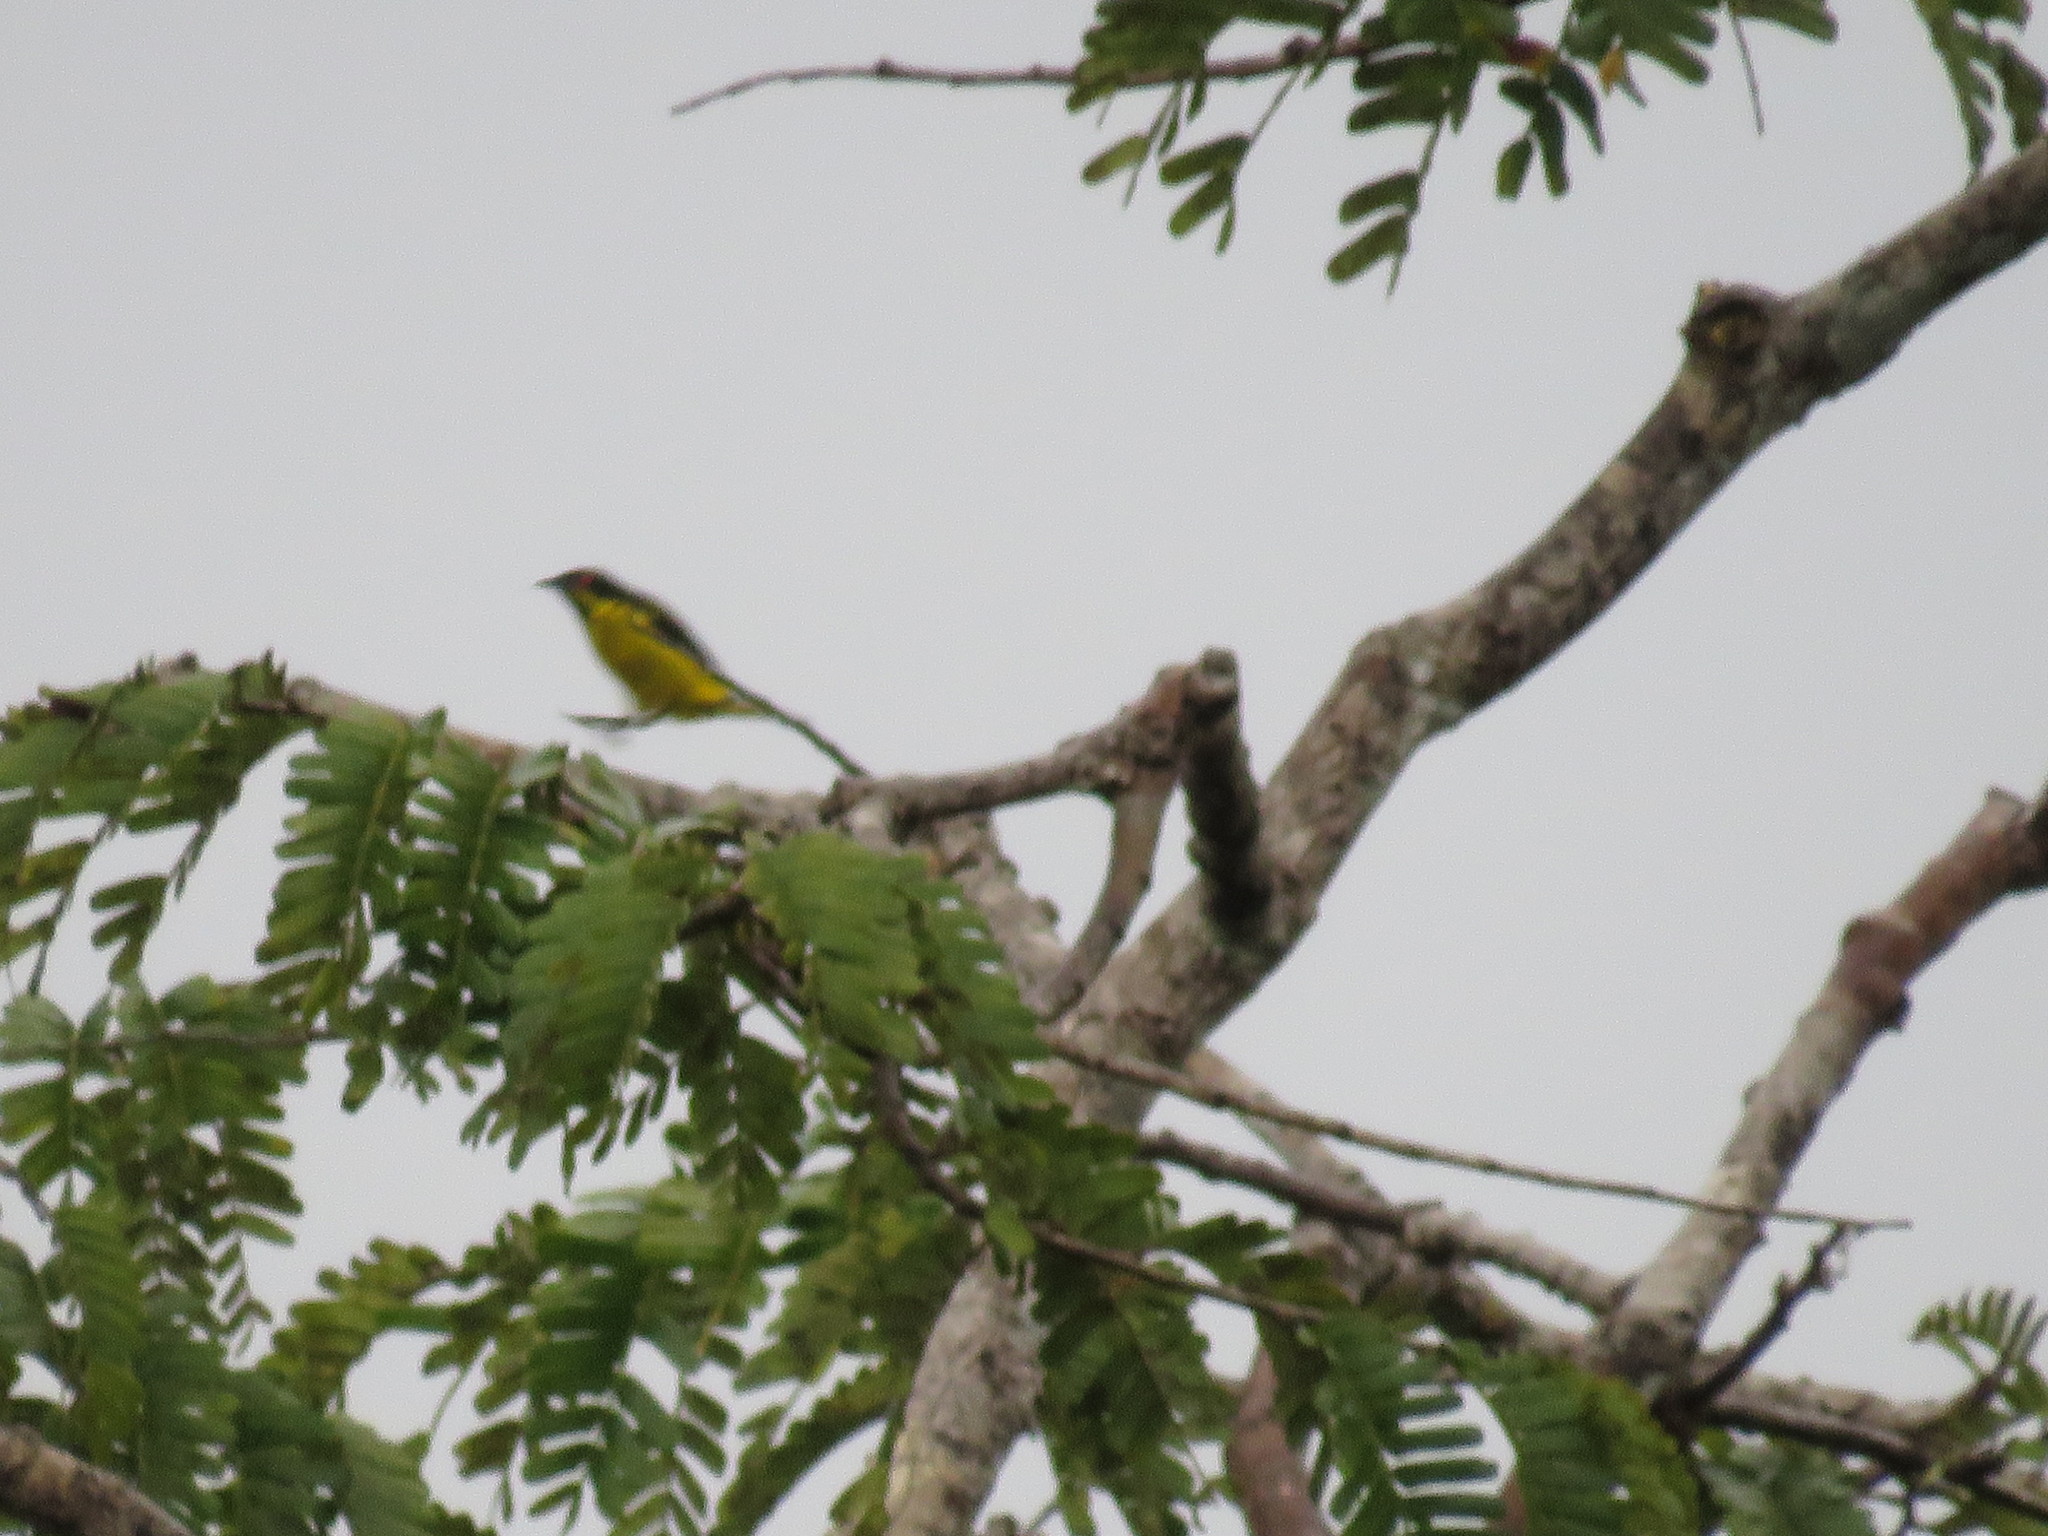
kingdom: Animalia
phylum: Chordata
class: Aves
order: Passeriformes
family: Thraupidae
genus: Dacnis
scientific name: Dacnis flaviventer
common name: Yellow-bellied dacnis
